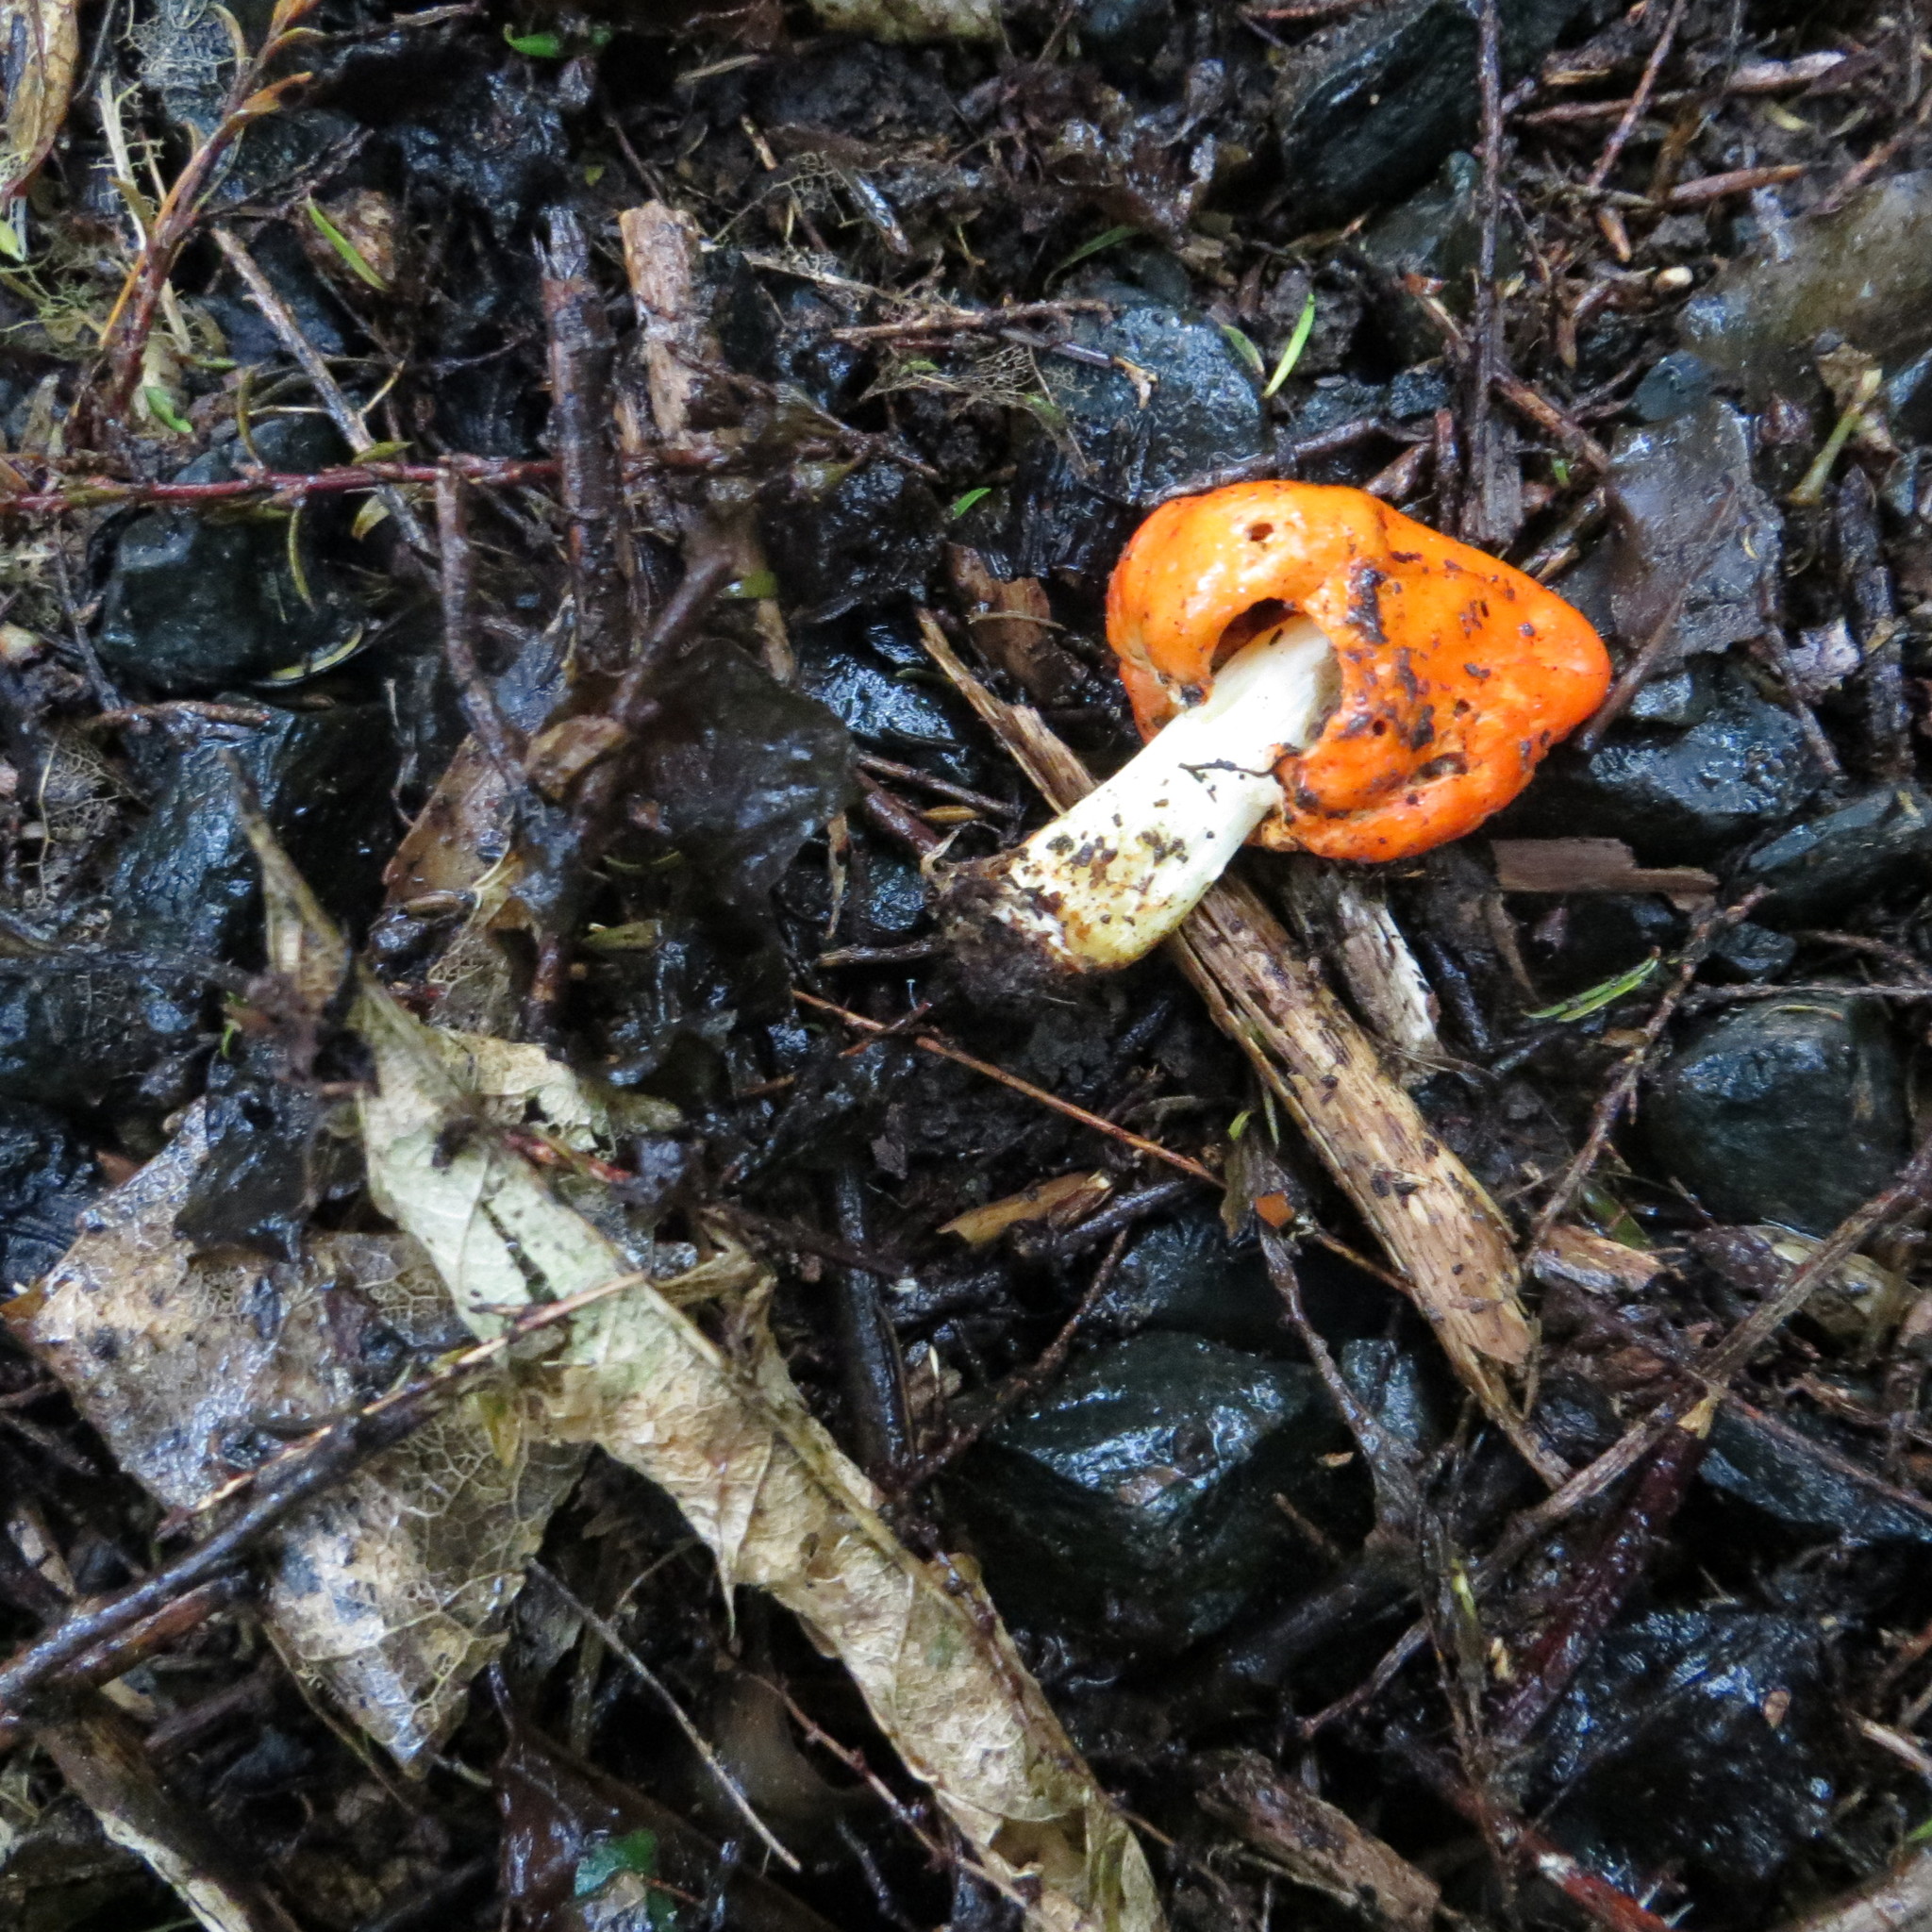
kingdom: Fungi
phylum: Basidiomycota
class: Agaricomycetes
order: Agaricales
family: Strophariaceae
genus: Leratiomyces
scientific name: Leratiomyces erythrocephalus
